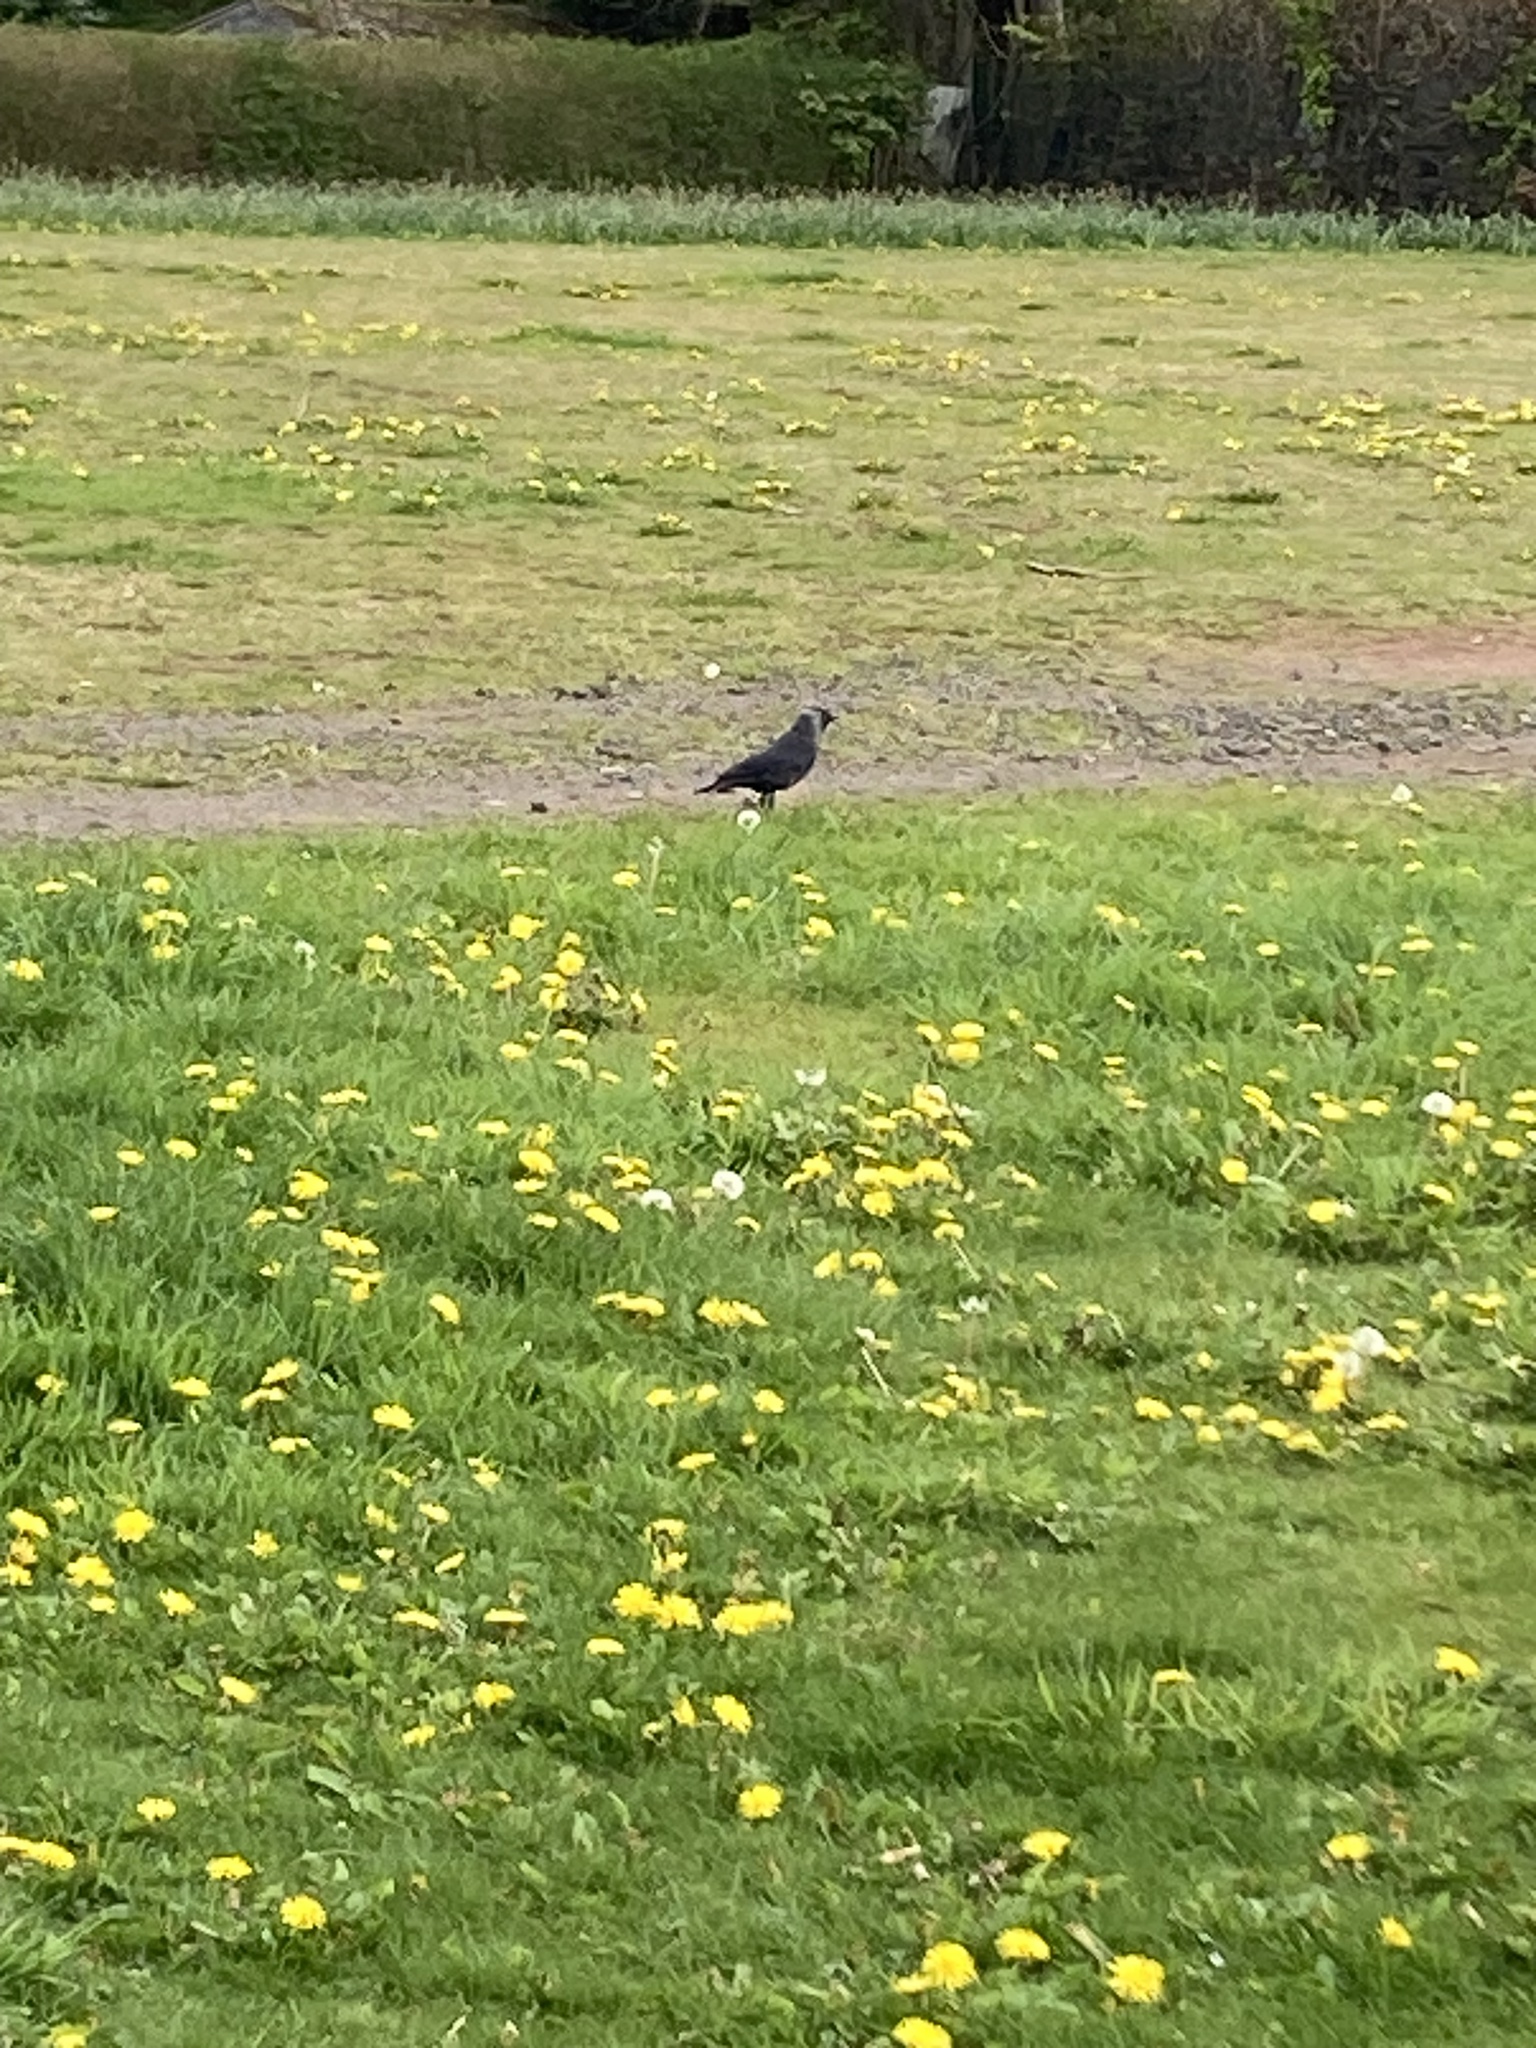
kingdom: Animalia
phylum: Chordata
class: Aves
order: Passeriformes
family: Corvidae
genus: Coloeus
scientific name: Coloeus monedula
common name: Western jackdaw
